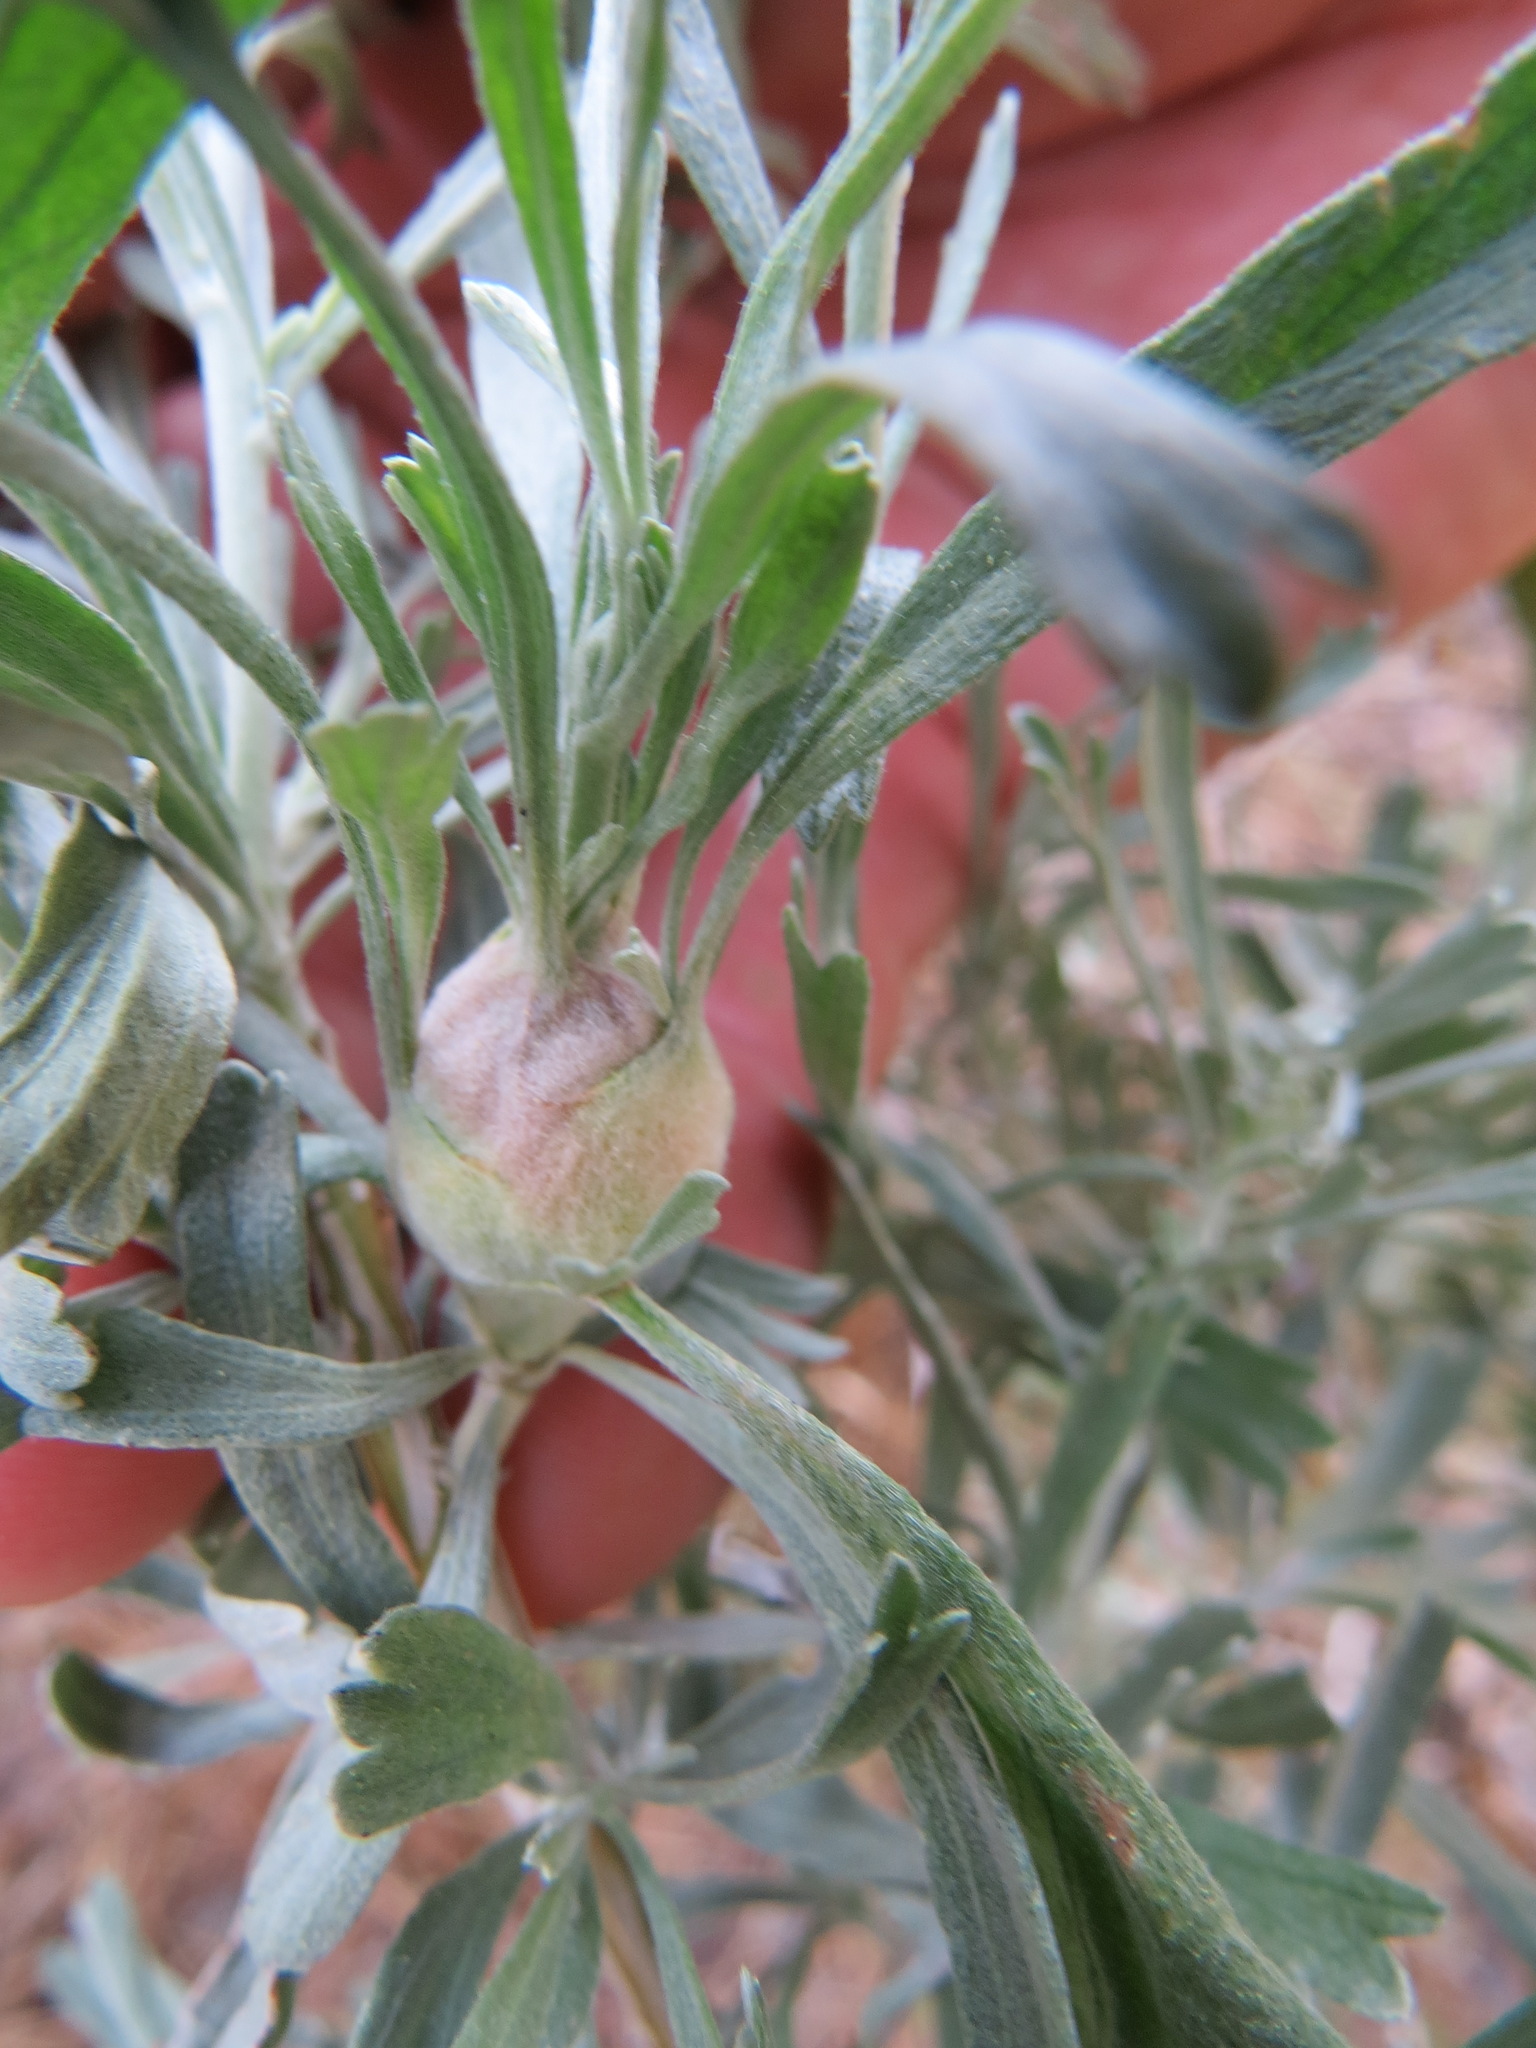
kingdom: Animalia
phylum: Arthropoda
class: Insecta
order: Diptera
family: Tephritidae
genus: Eutreta
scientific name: Eutreta diana
